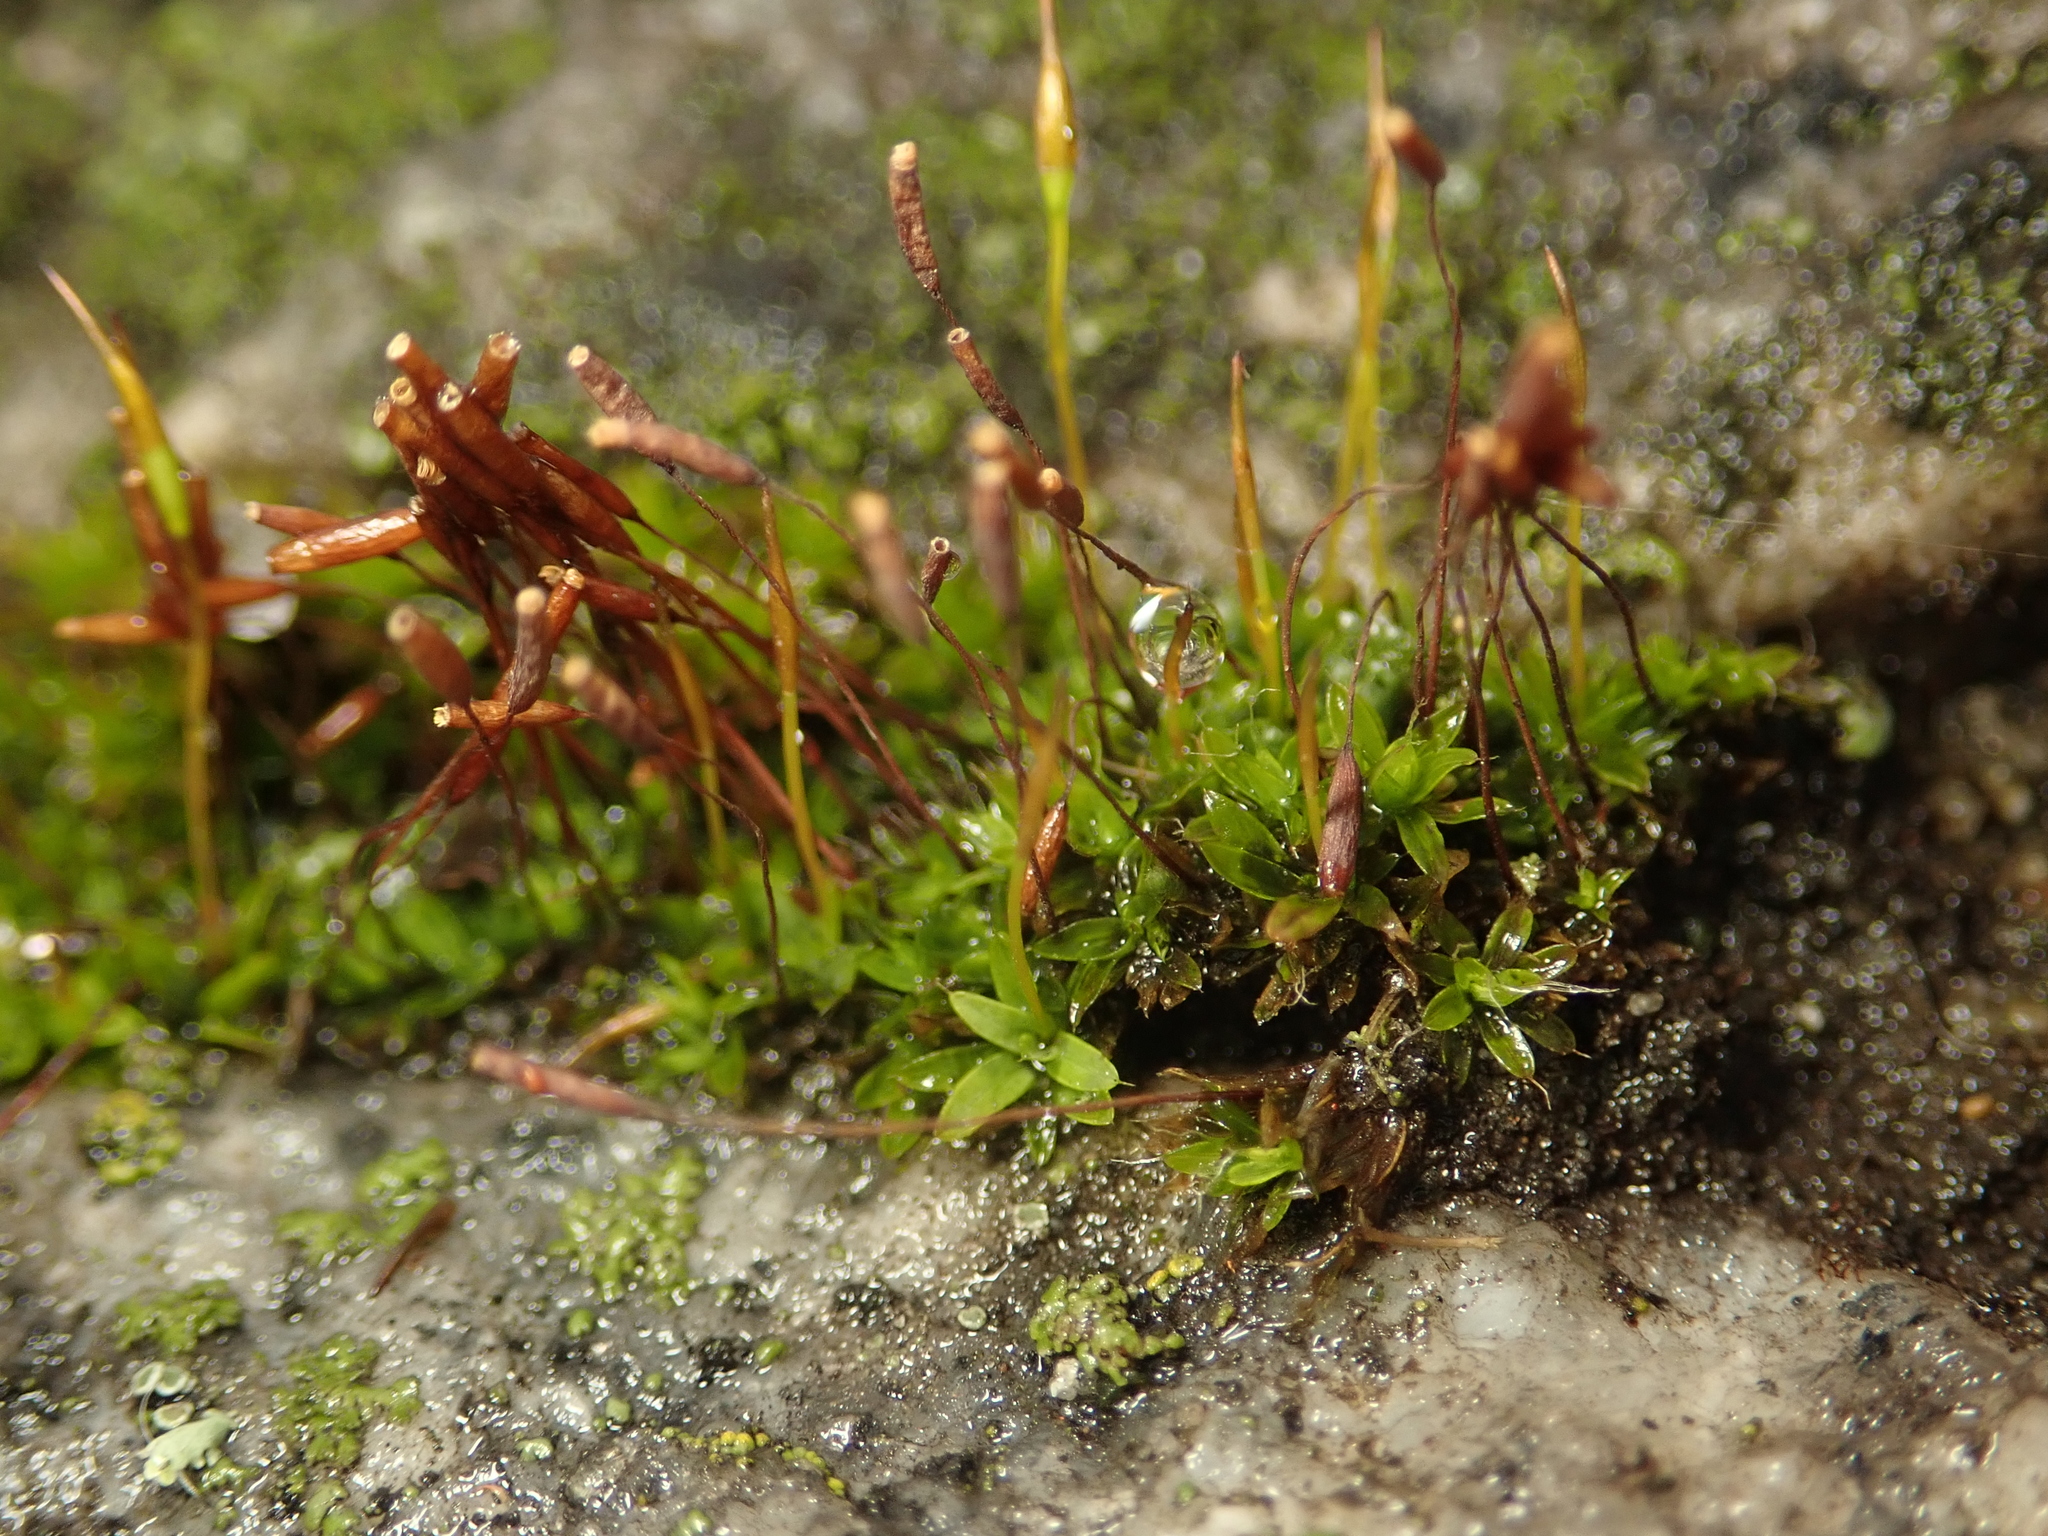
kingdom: Plantae
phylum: Bryophyta
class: Bryopsida
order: Pottiales
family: Pottiaceae
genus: Tortula
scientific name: Tortula muralis
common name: Wall screw-moss
